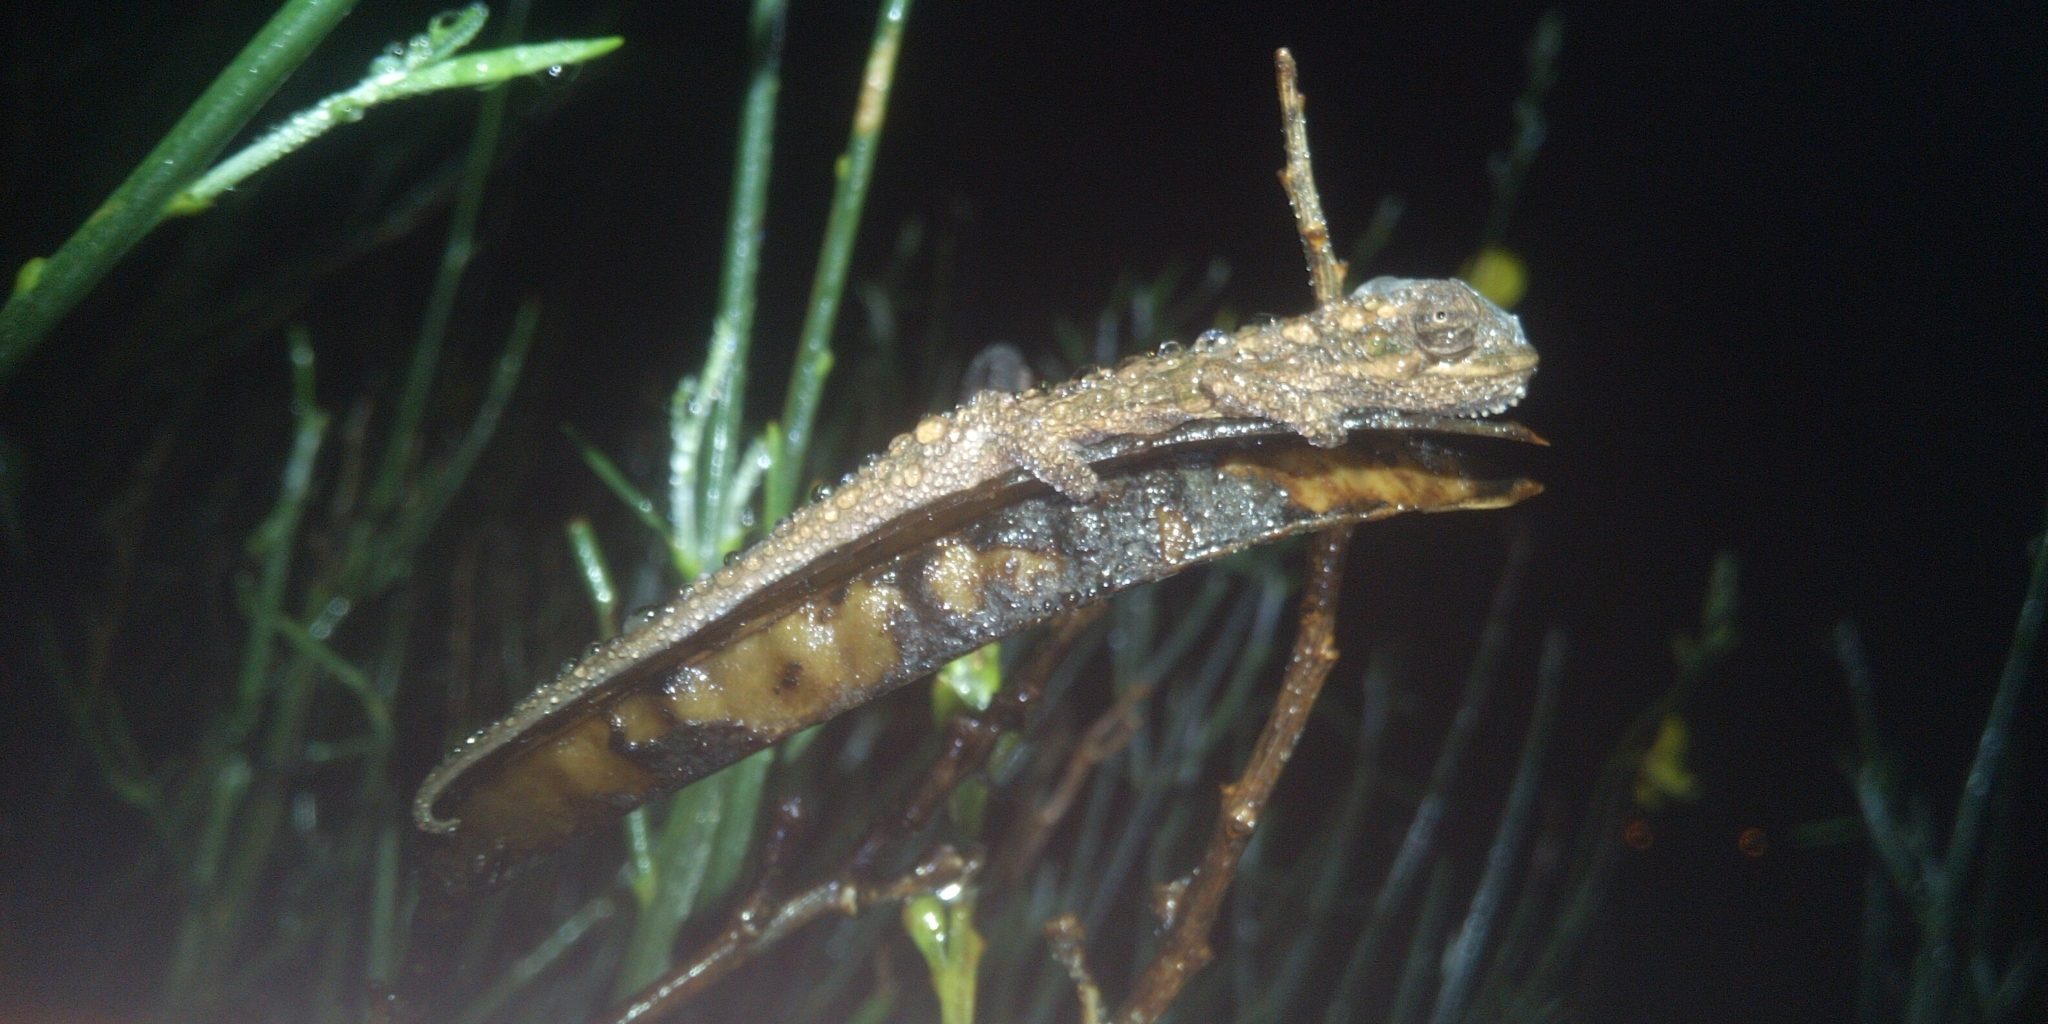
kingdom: Animalia
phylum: Chordata
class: Squamata
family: Chamaeleonidae
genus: Bradypodion
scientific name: Bradypodion pumilum
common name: Cape dwarf chameleon
